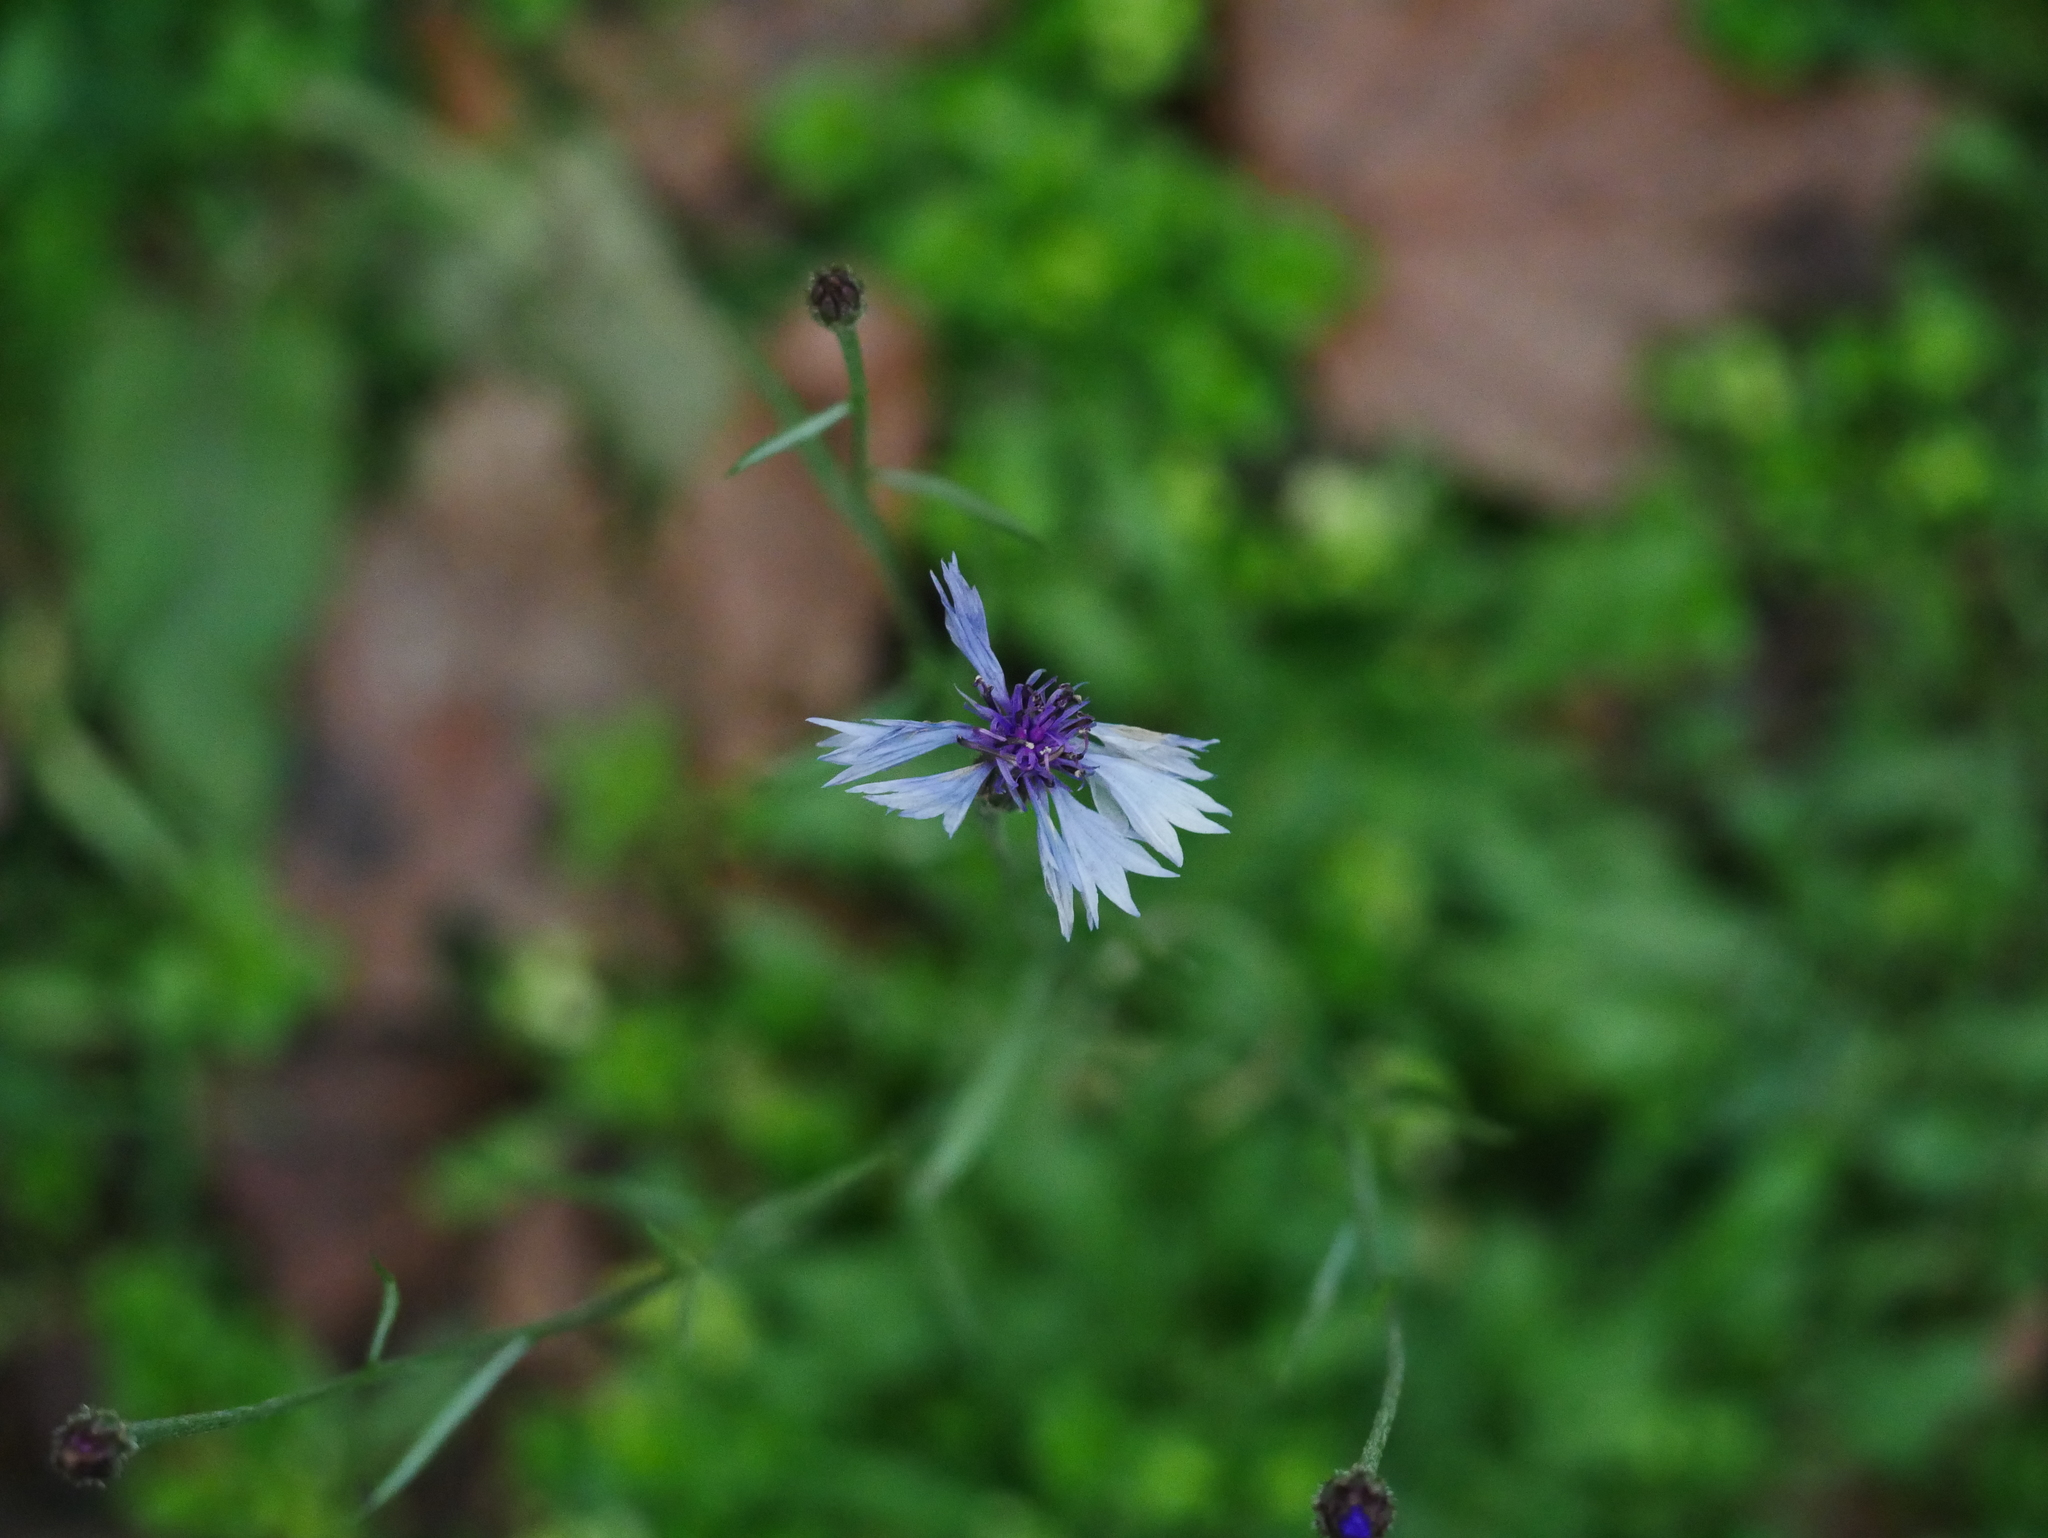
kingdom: Plantae
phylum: Tracheophyta
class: Magnoliopsida
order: Asterales
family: Asteraceae
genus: Centaurea
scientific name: Centaurea cyanus
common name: Cornflower
